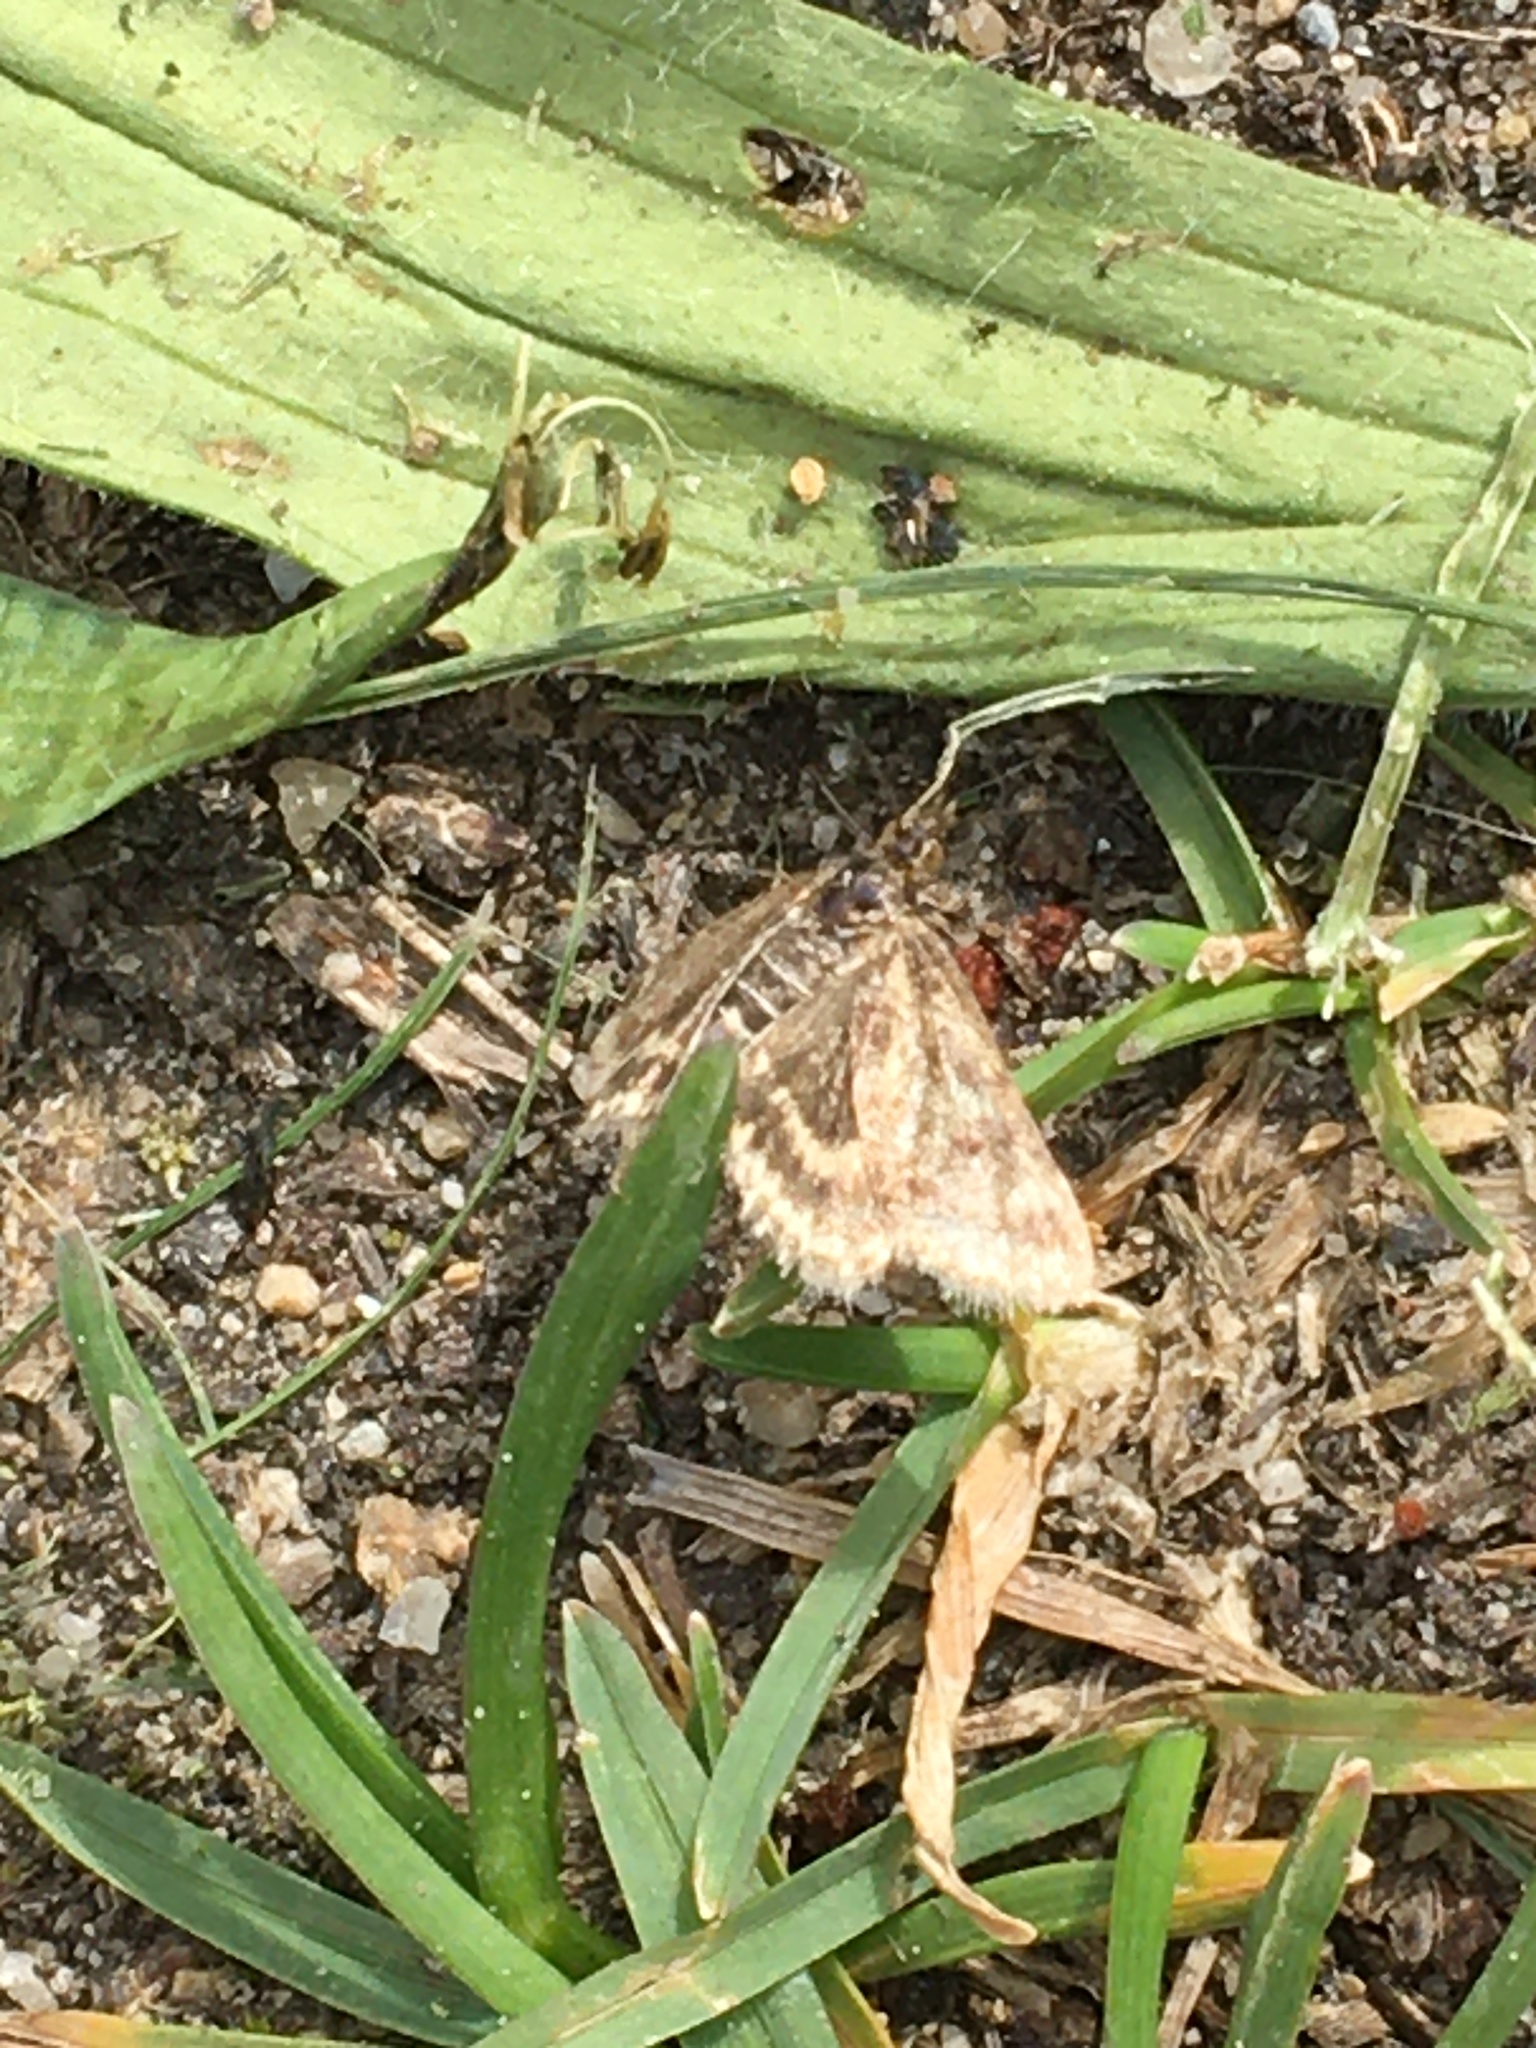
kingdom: Animalia
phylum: Arthropoda
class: Insecta
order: Lepidoptera
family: Crambidae
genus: Pyrausta
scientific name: Pyrausta despicata
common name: Straw-barred pearl
